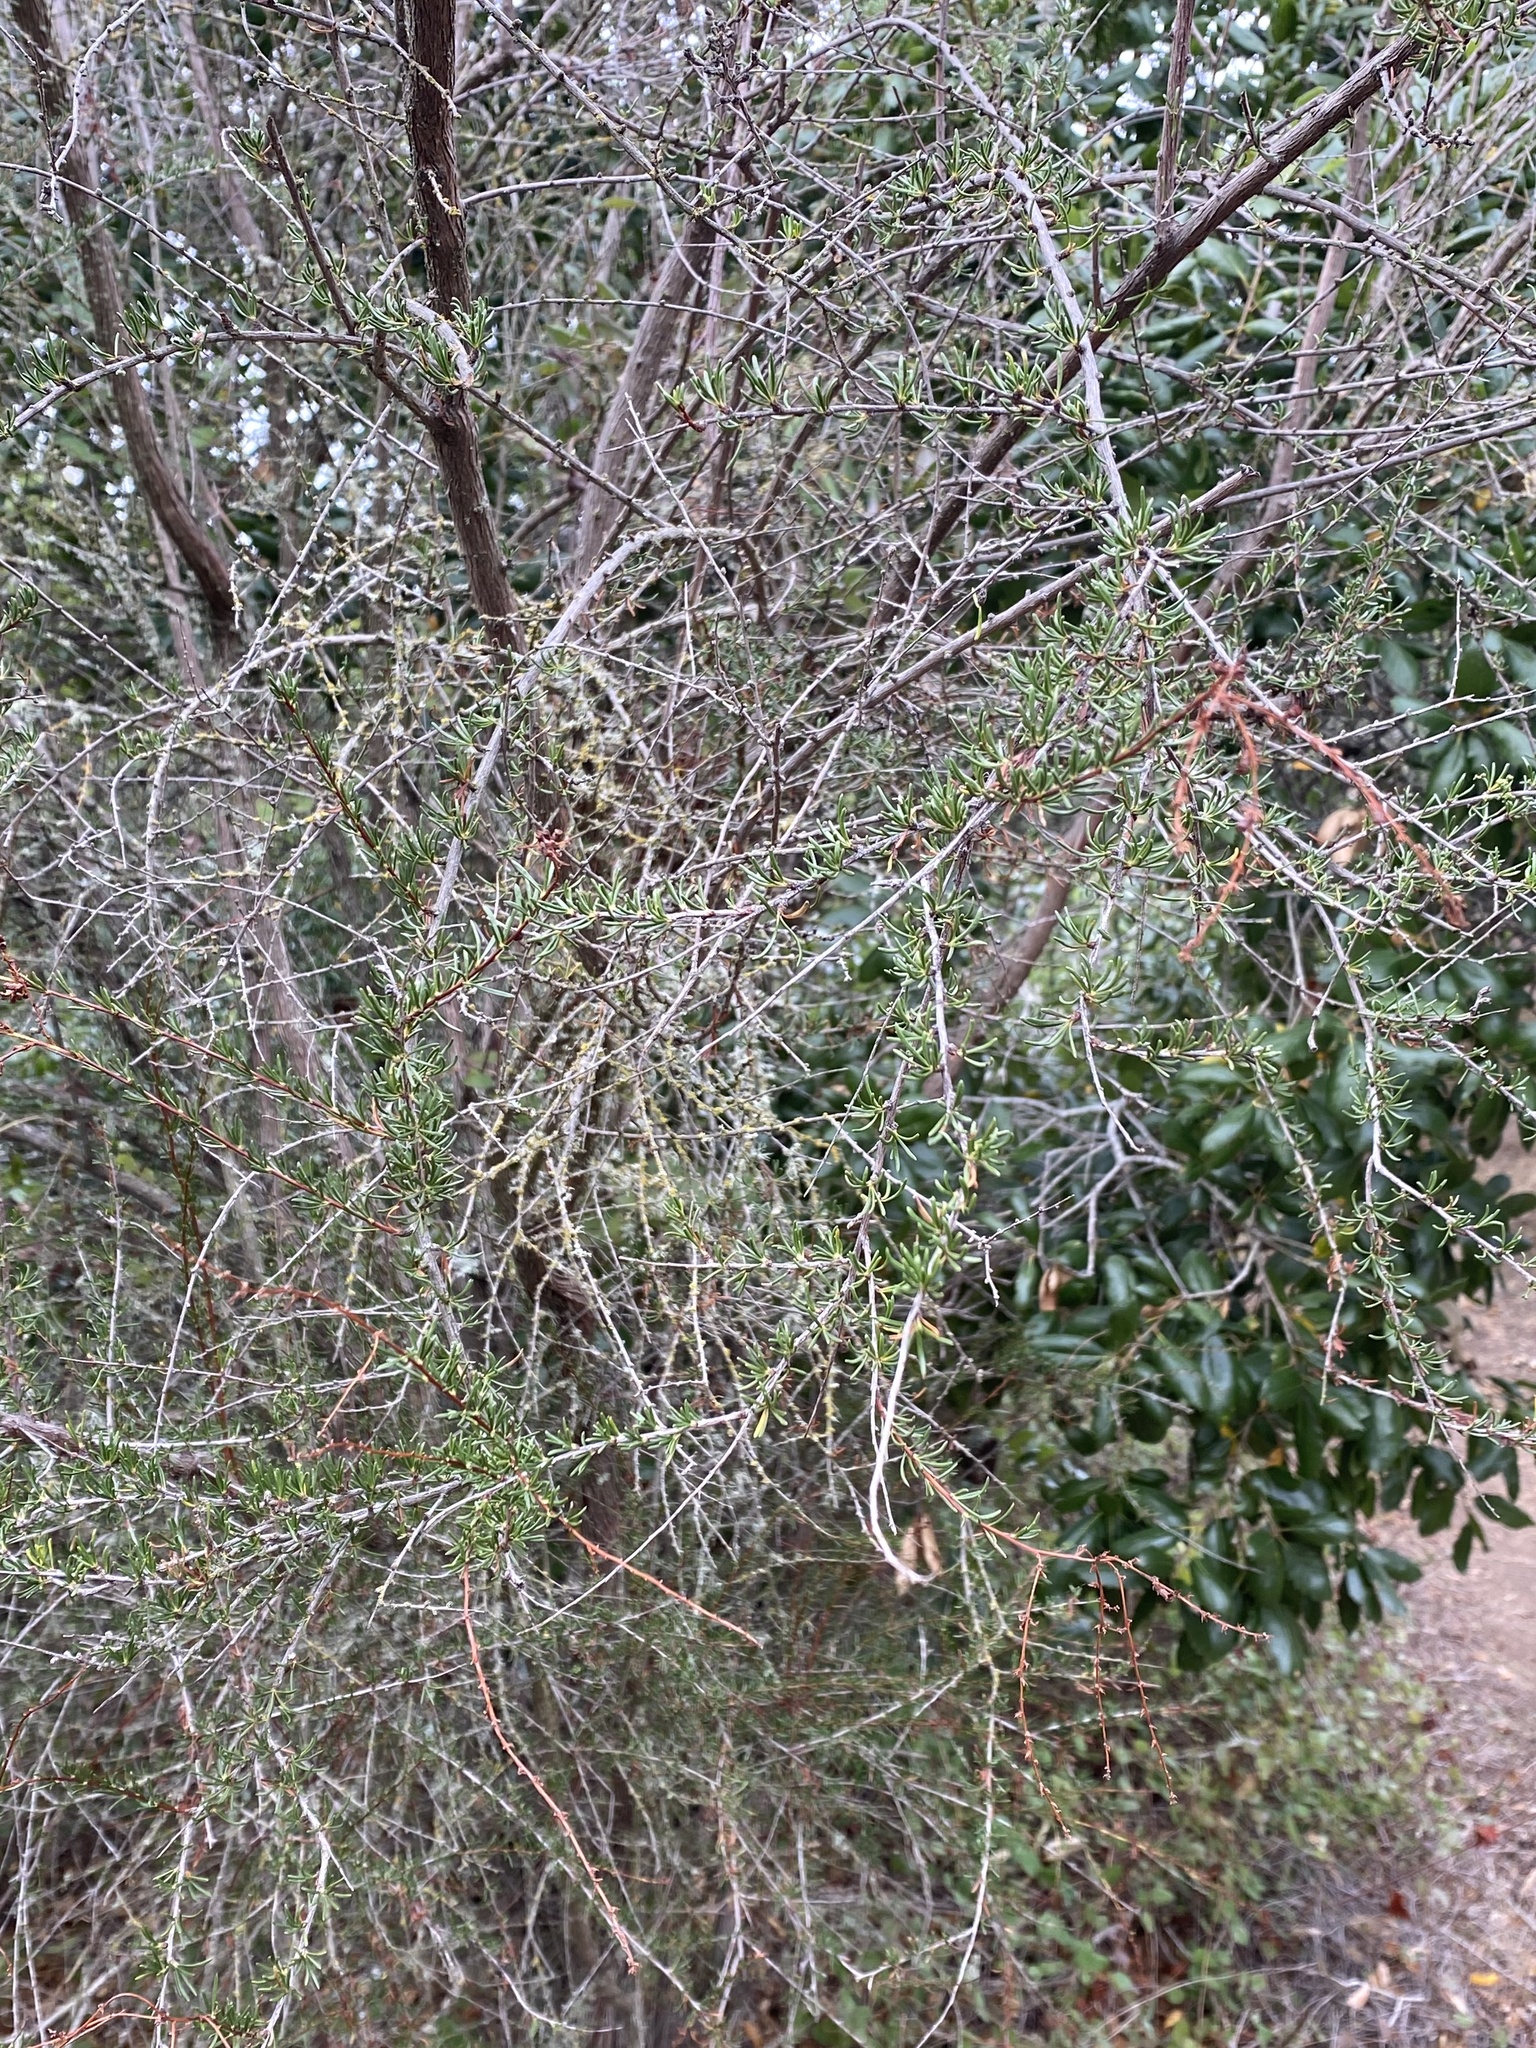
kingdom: Plantae
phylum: Tracheophyta
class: Magnoliopsida
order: Rosales
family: Rosaceae
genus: Adenostoma
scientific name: Adenostoma fasciculatum
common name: Chamise
